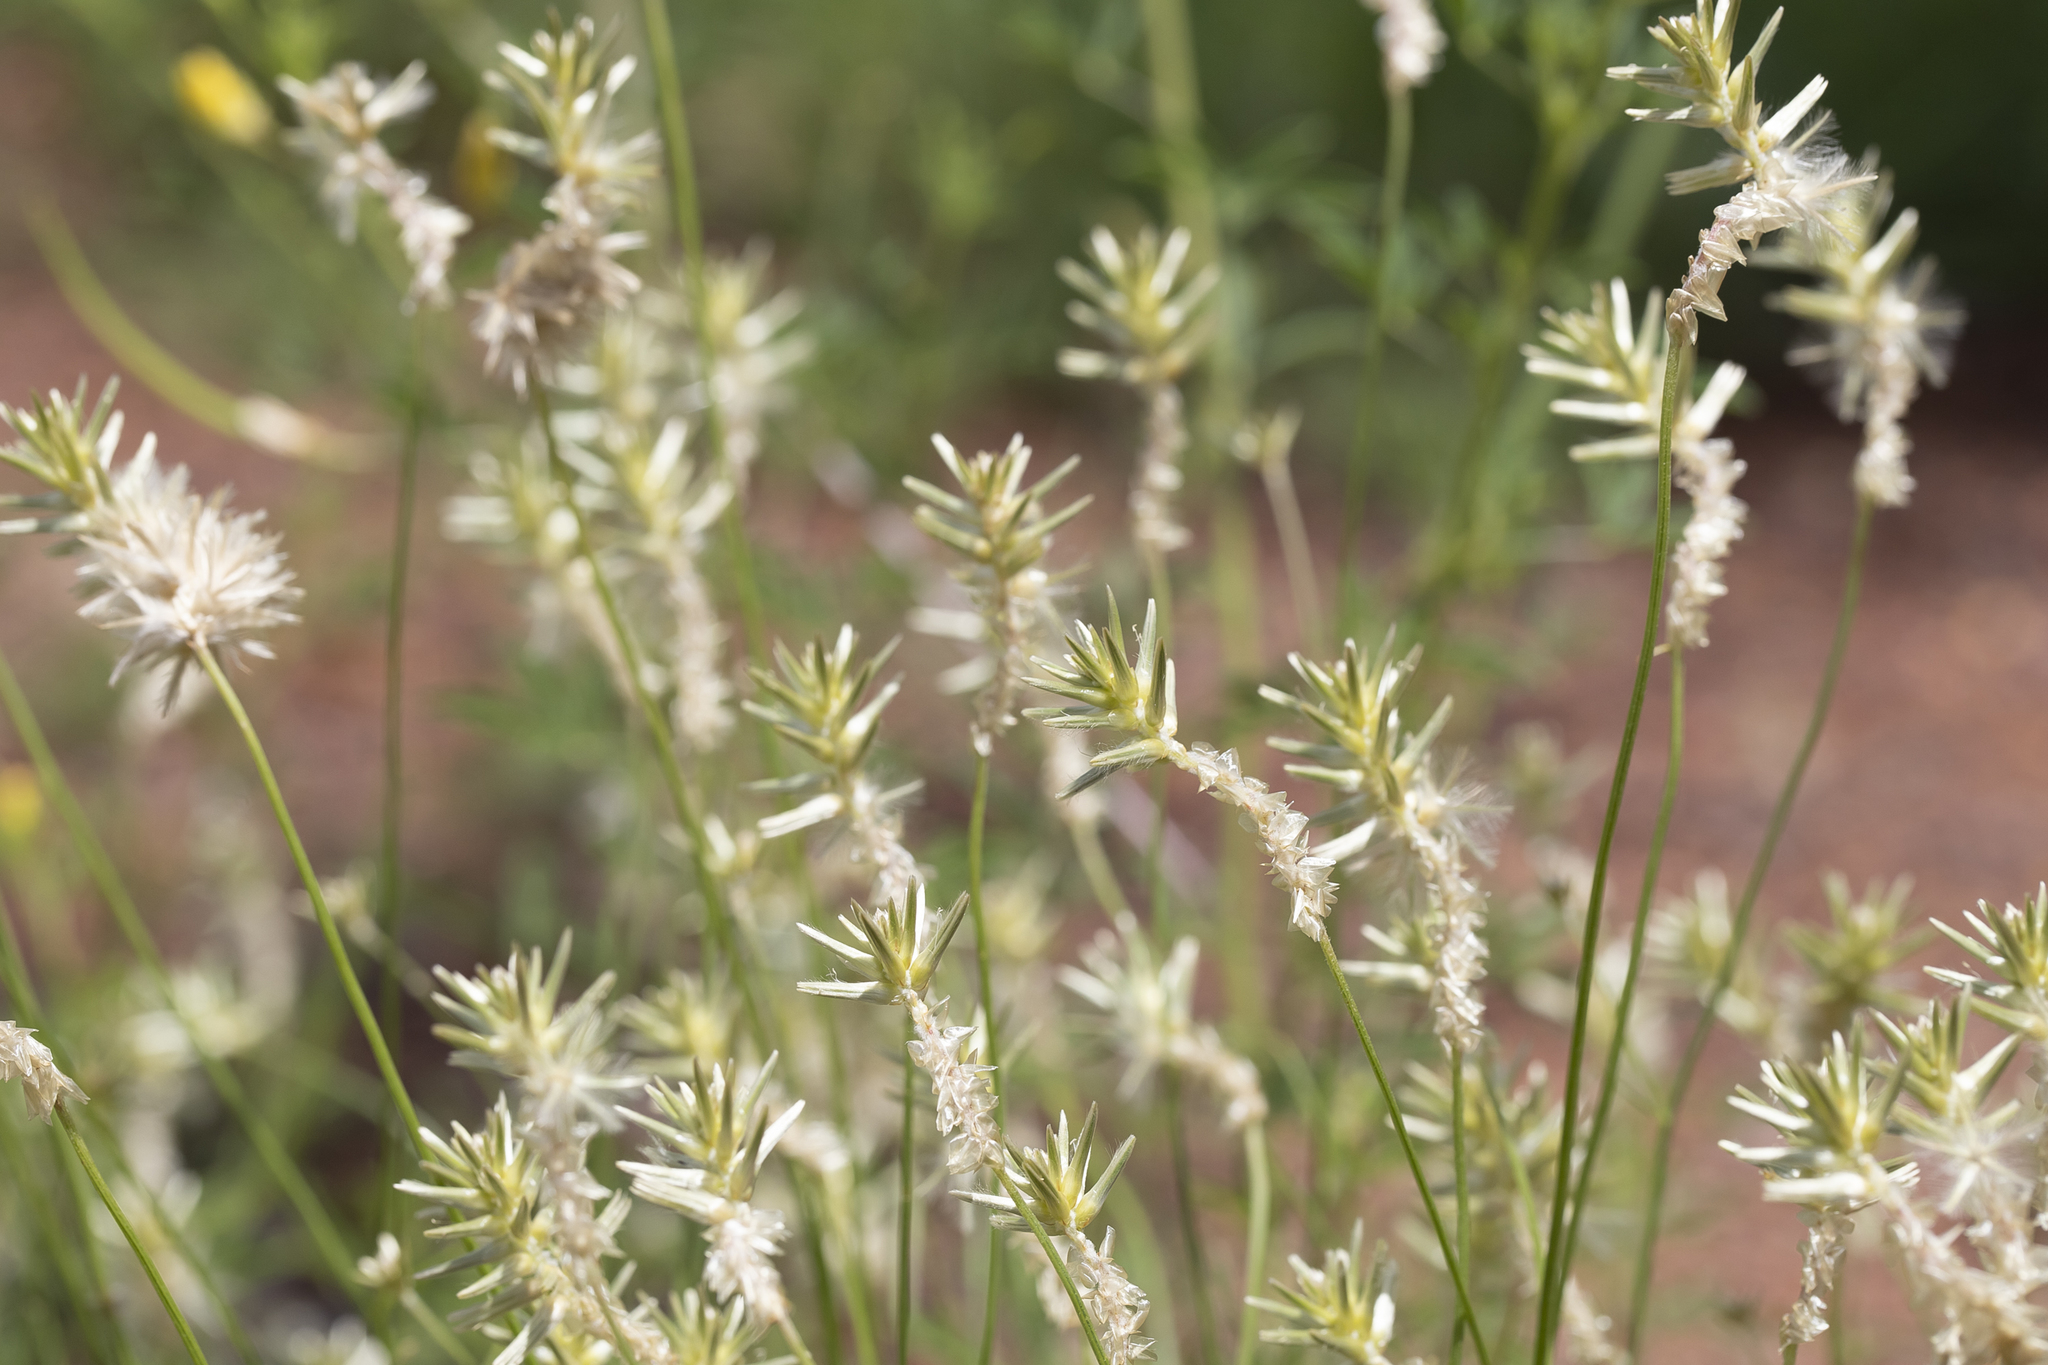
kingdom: Plantae
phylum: Tracheophyta
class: Magnoliopsida
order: Caryophyllales
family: Amaranthaceae
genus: Ptilotus
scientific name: Ptilotus fusiformis
